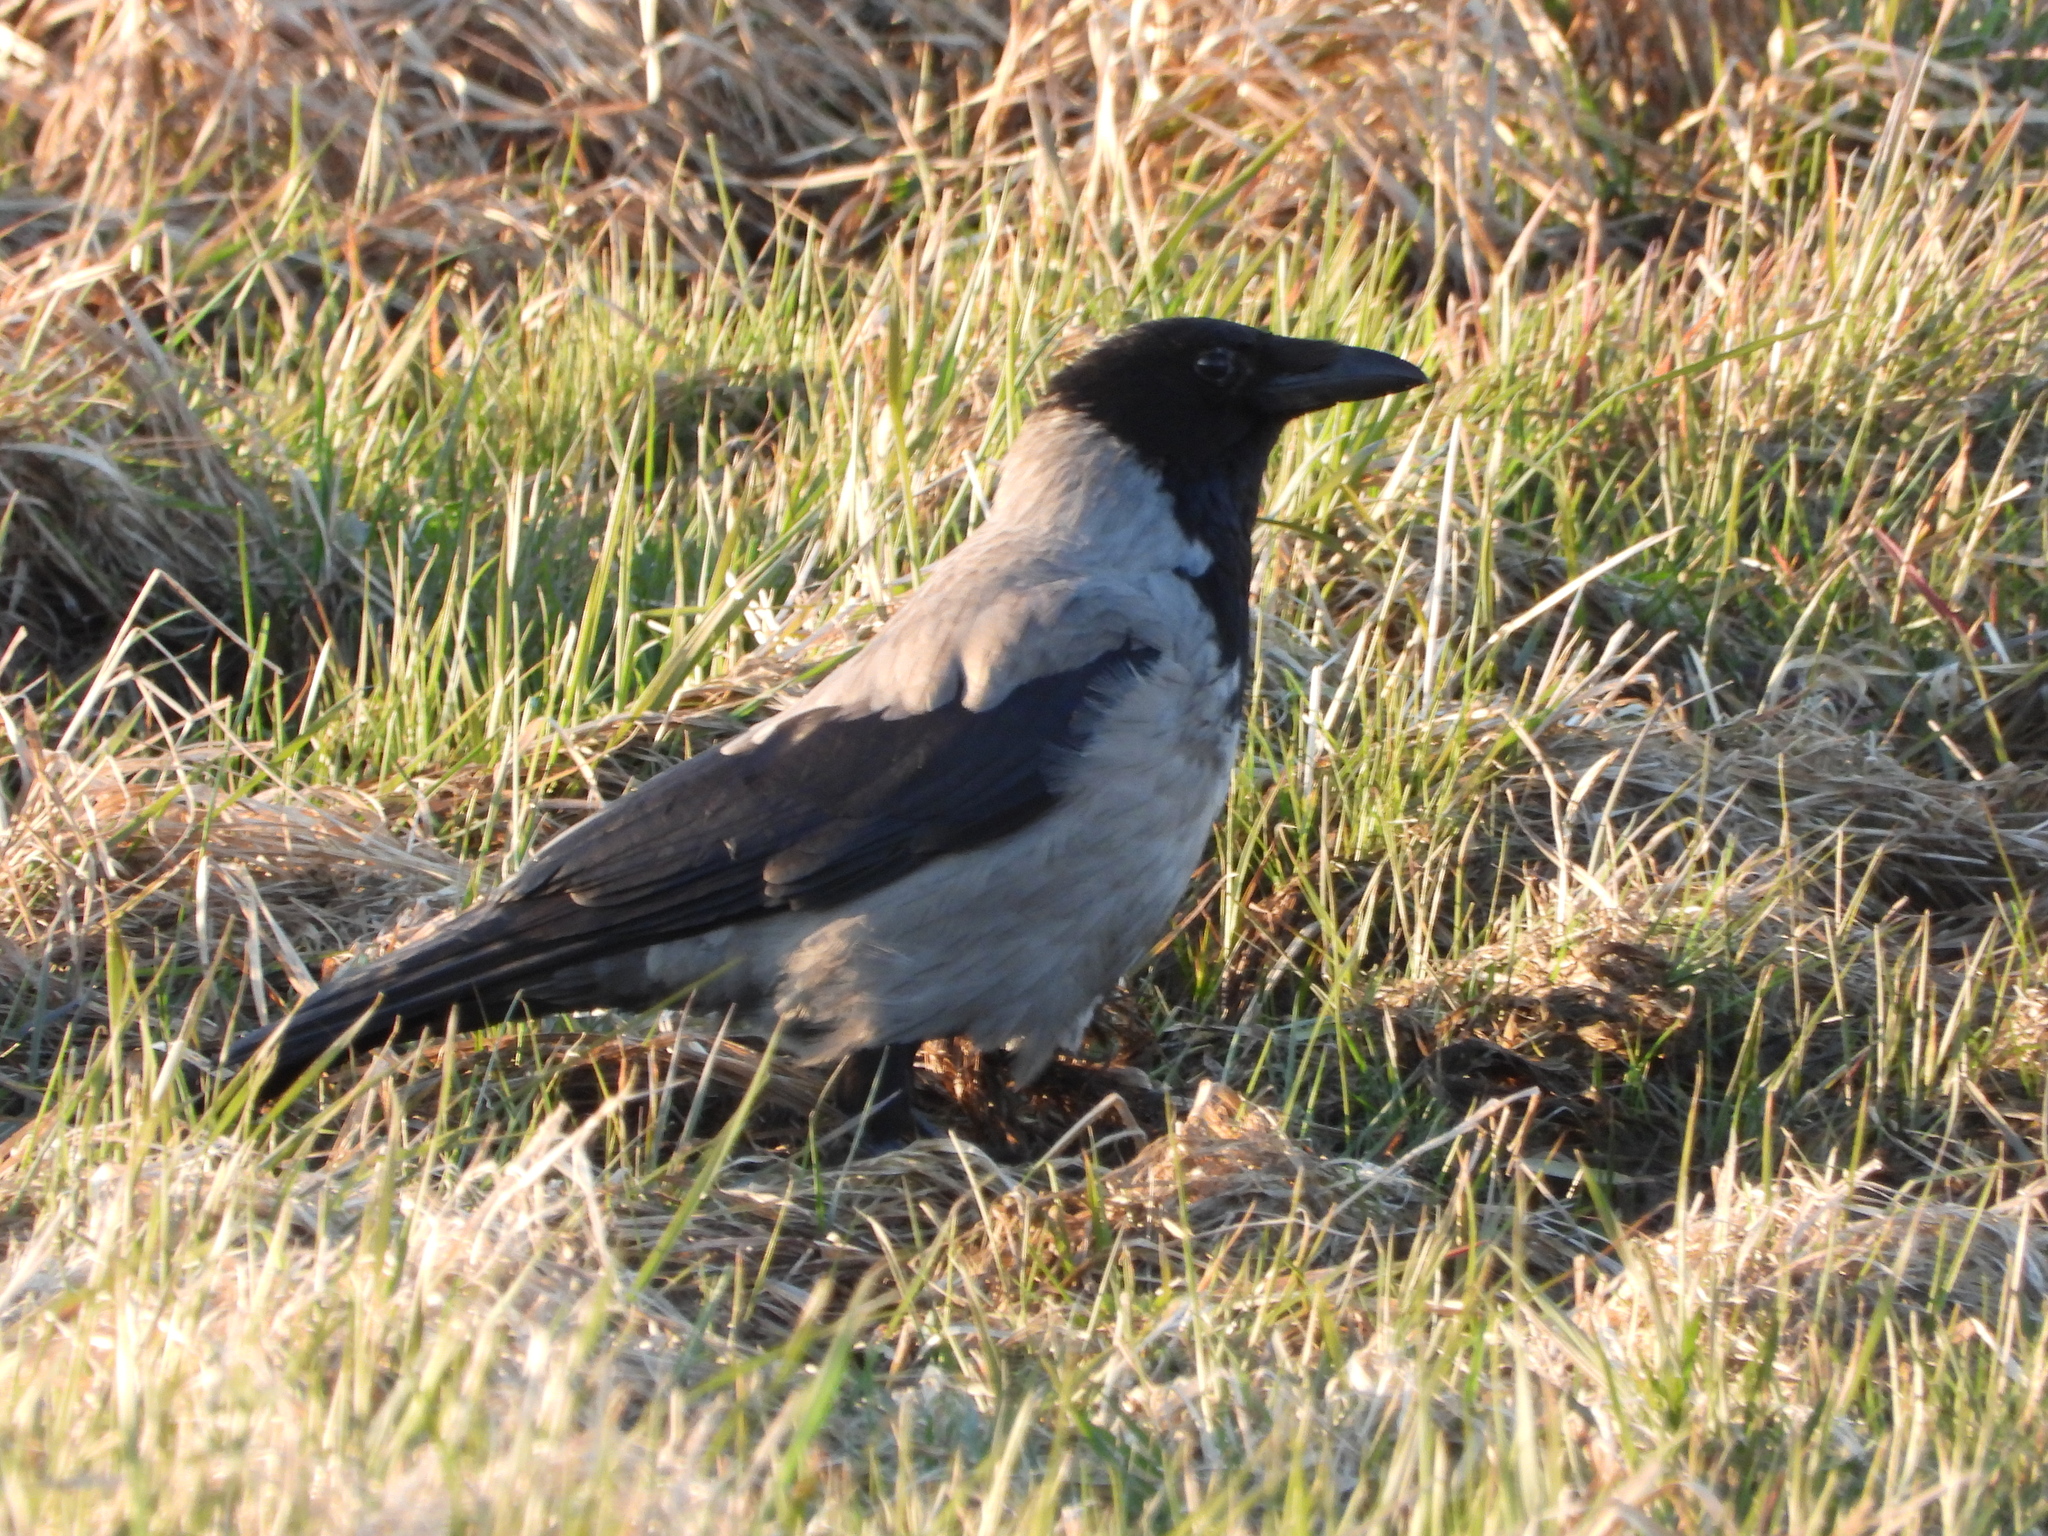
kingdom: Animalia
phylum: Chordata
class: Aves
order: Passeriformes
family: Corvidae
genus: Corvus
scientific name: Corvus cornix
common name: Hooded crow
